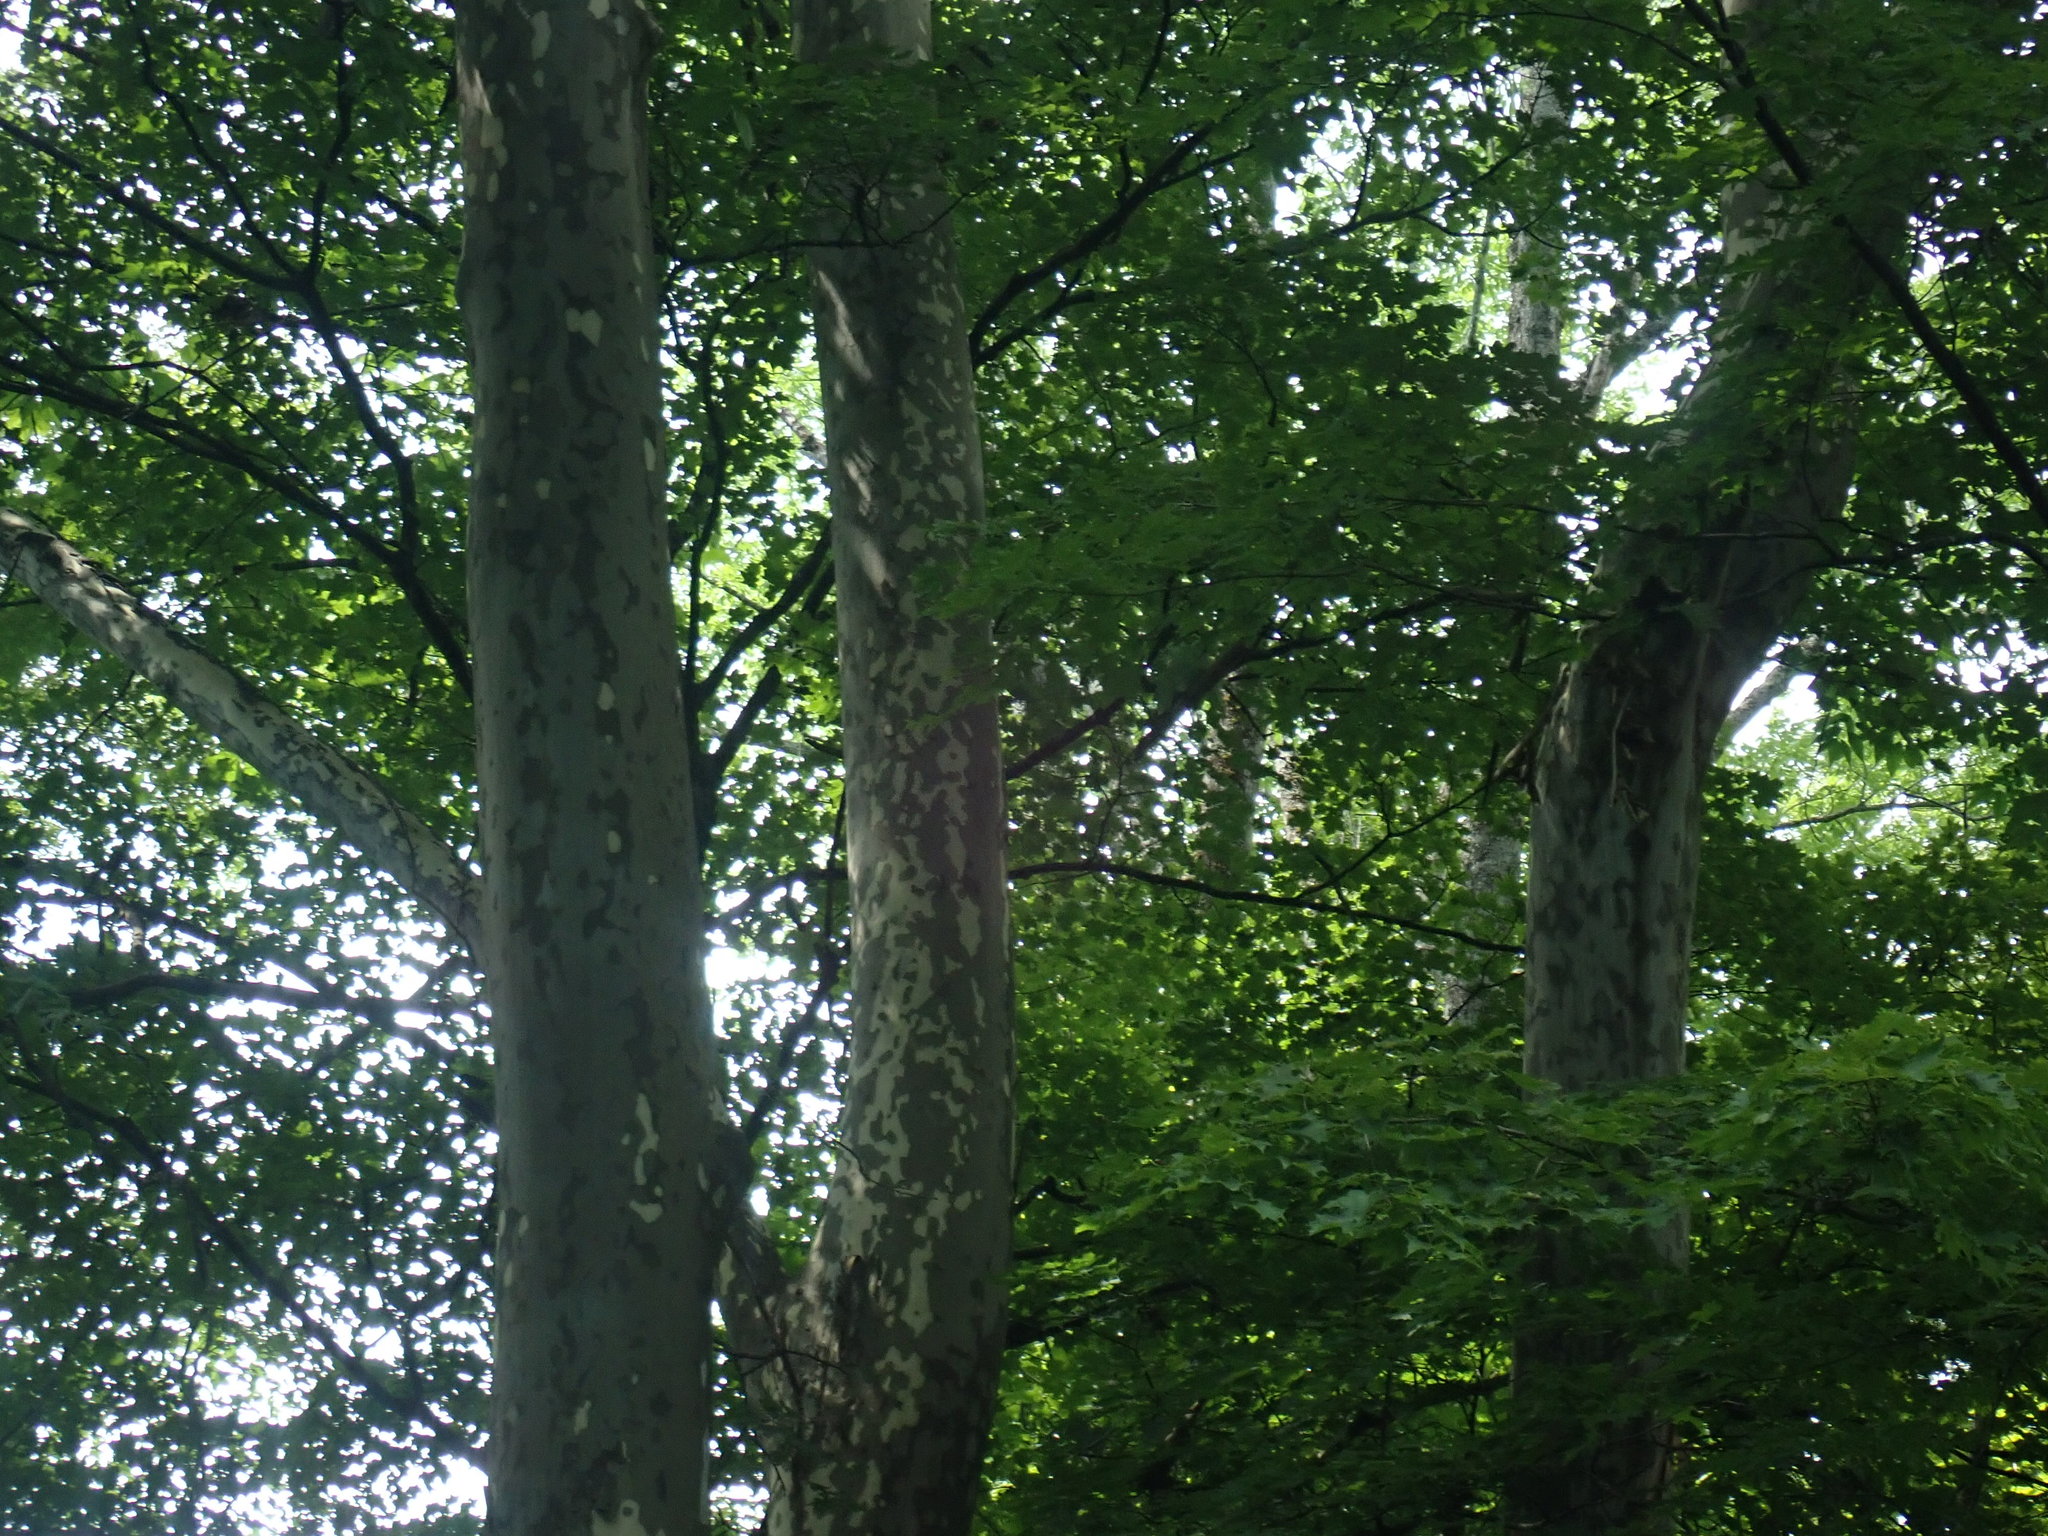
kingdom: Plantae
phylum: Tracheophyta
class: Magnoliopsida
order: Proteales
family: Platanaceae
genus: Platanus
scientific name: Platanus occidentalis
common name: American sycamore
